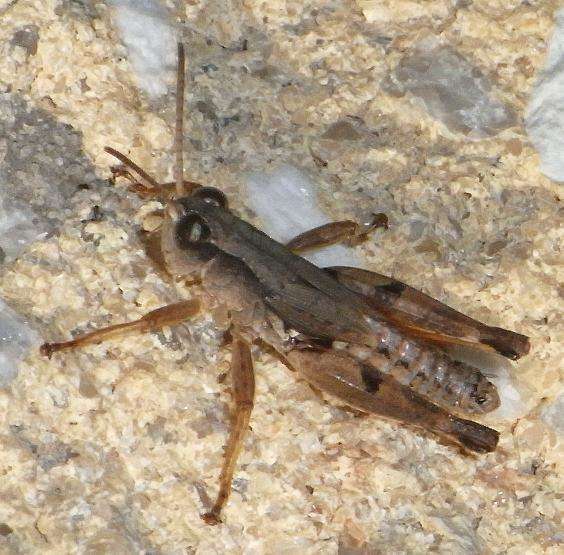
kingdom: Animalia
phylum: Arthropoda
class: Insecta
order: Orthoptera
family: Acrididae
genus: Phaulacridium
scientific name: Phaulacridium vittatum
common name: Wingless grasshopper
